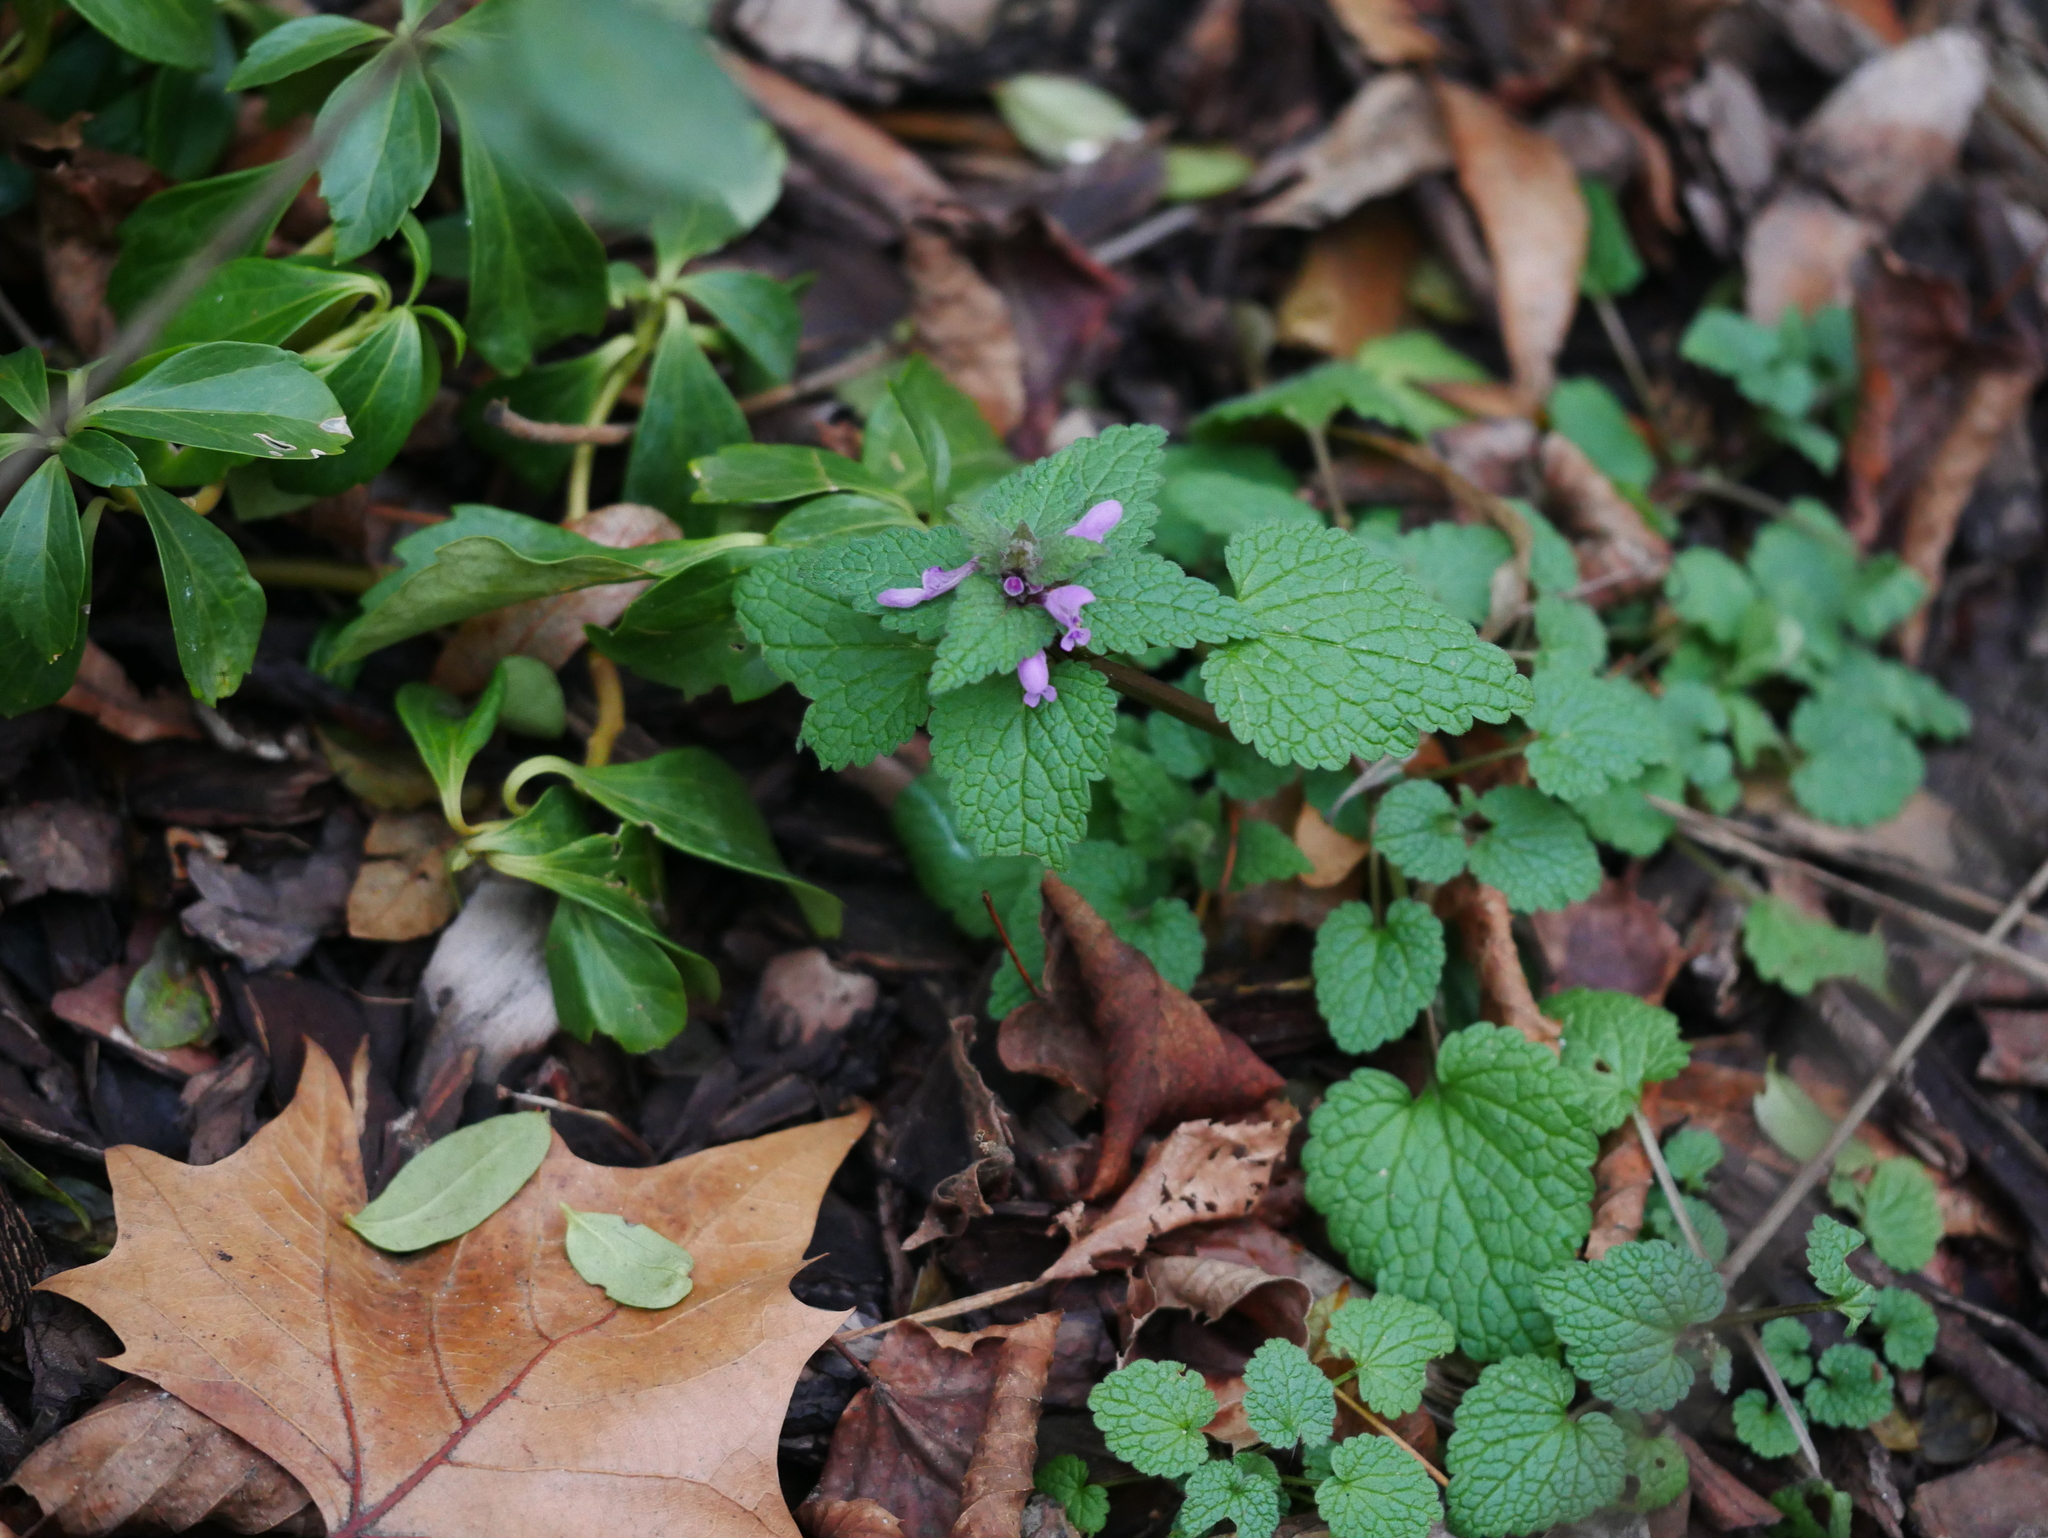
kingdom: Plantae
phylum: Tracheophyta
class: Magnoliopsida
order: Lamiales
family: Lamiaceae
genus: Lamium
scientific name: Lamium purpureum
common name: Red dead-nettle
